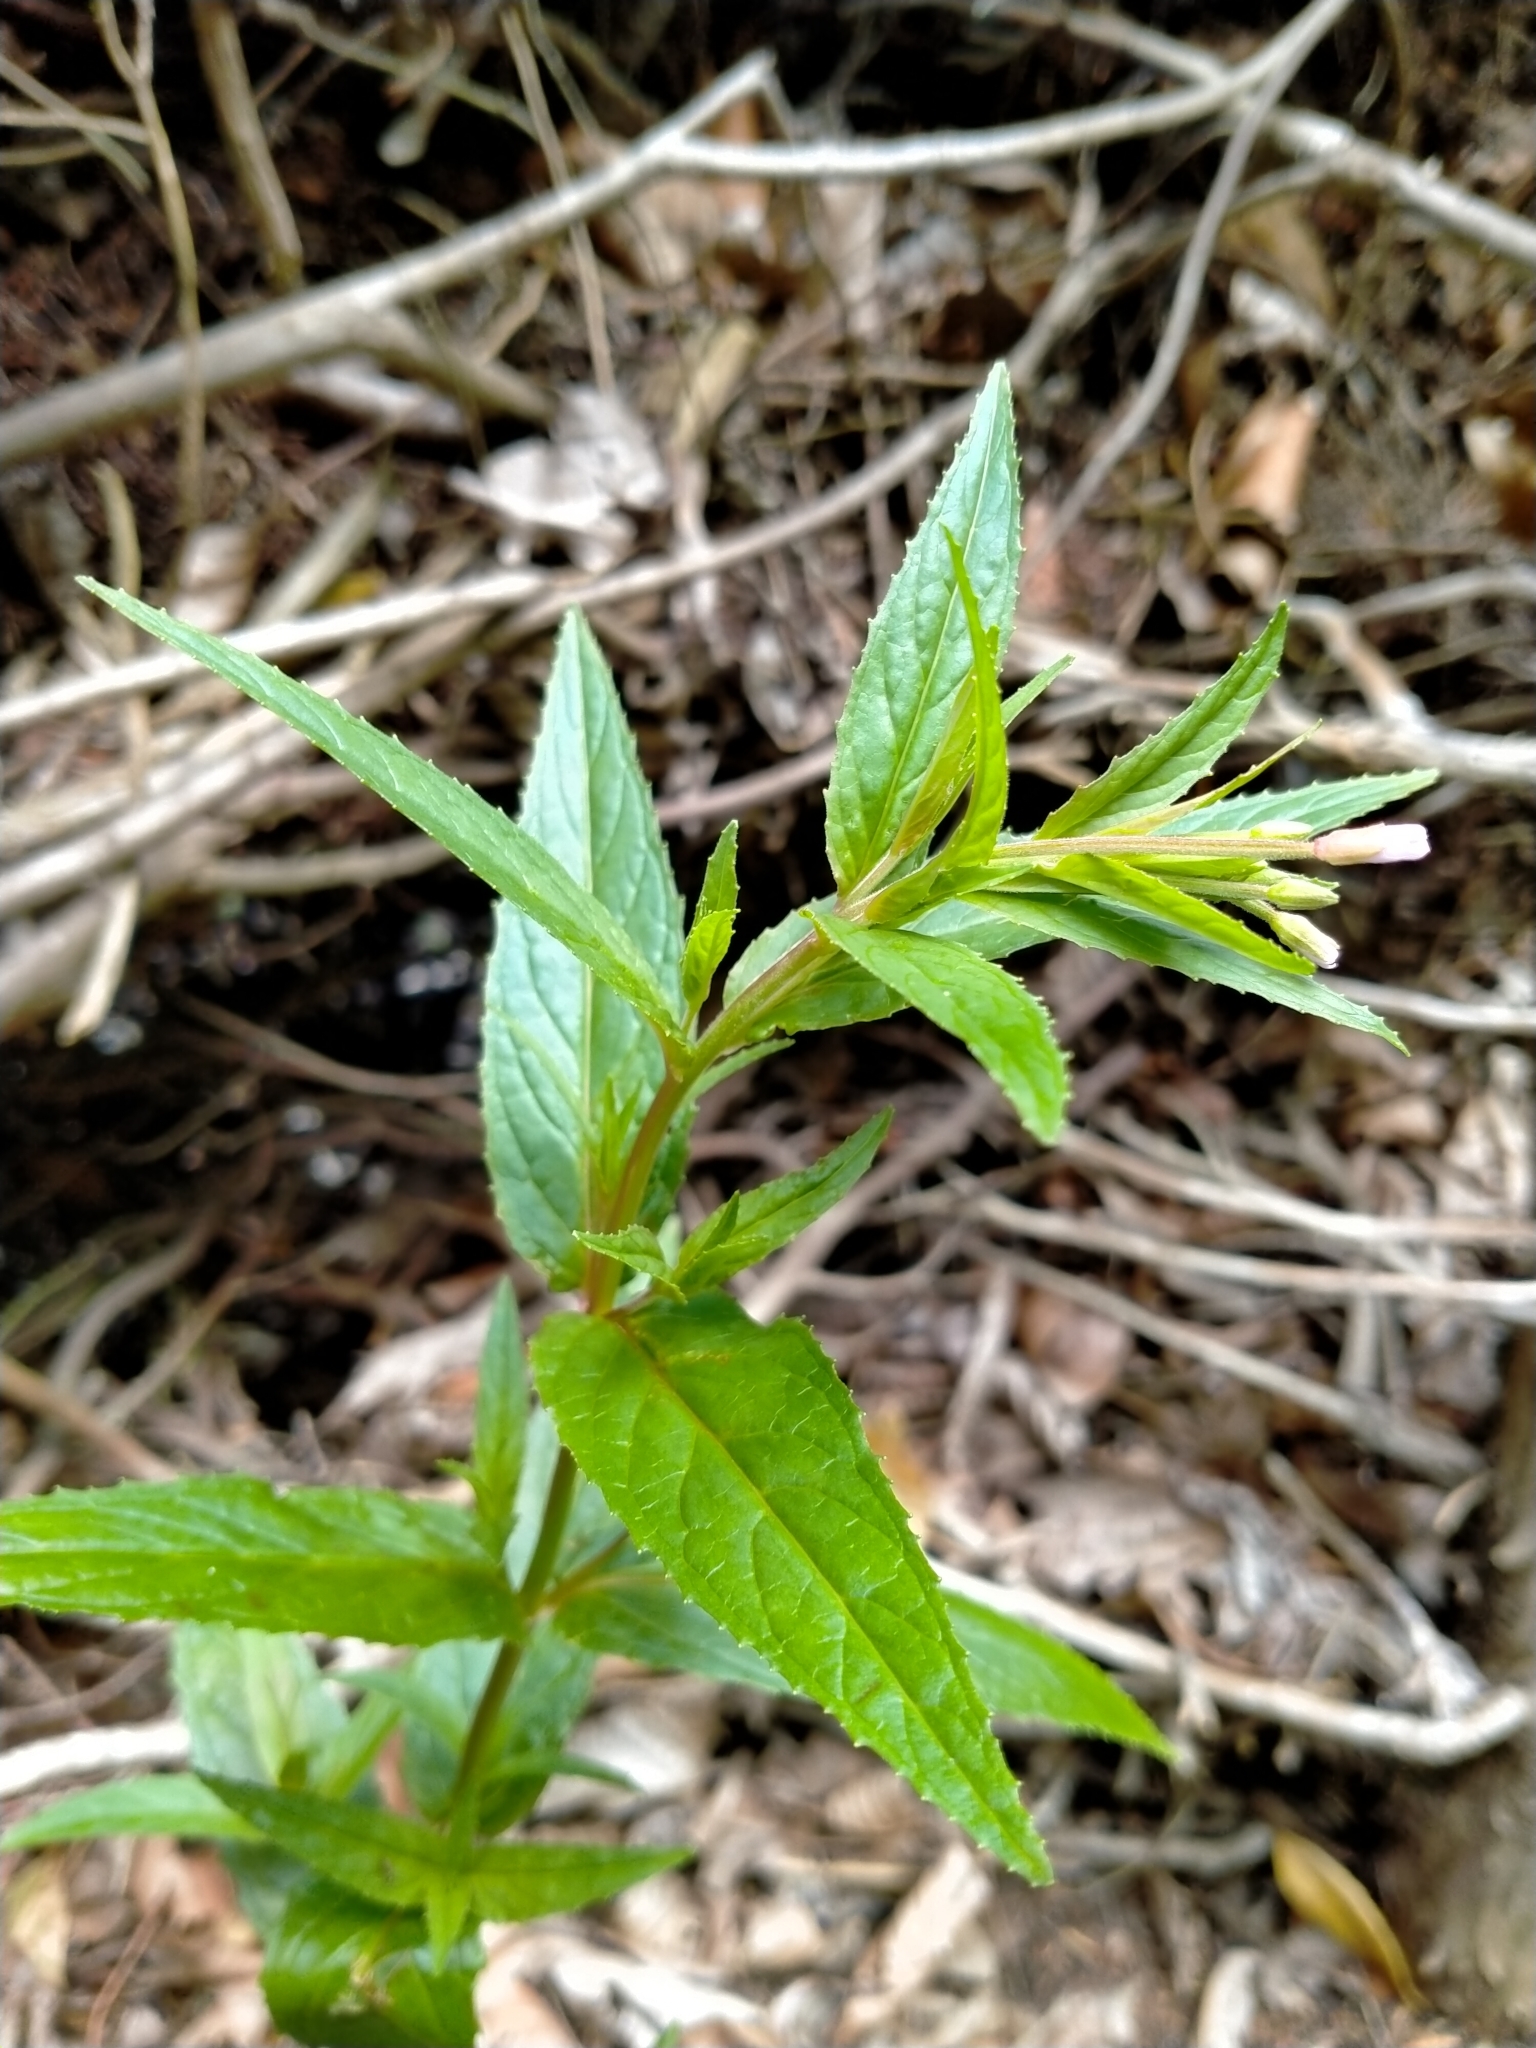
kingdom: Plantae
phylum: Tracheophyta
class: Magnoliopsida
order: Myrtales
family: Onagraceae
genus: Epilobium
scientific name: Epilobium ciliatum
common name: American willowherb
